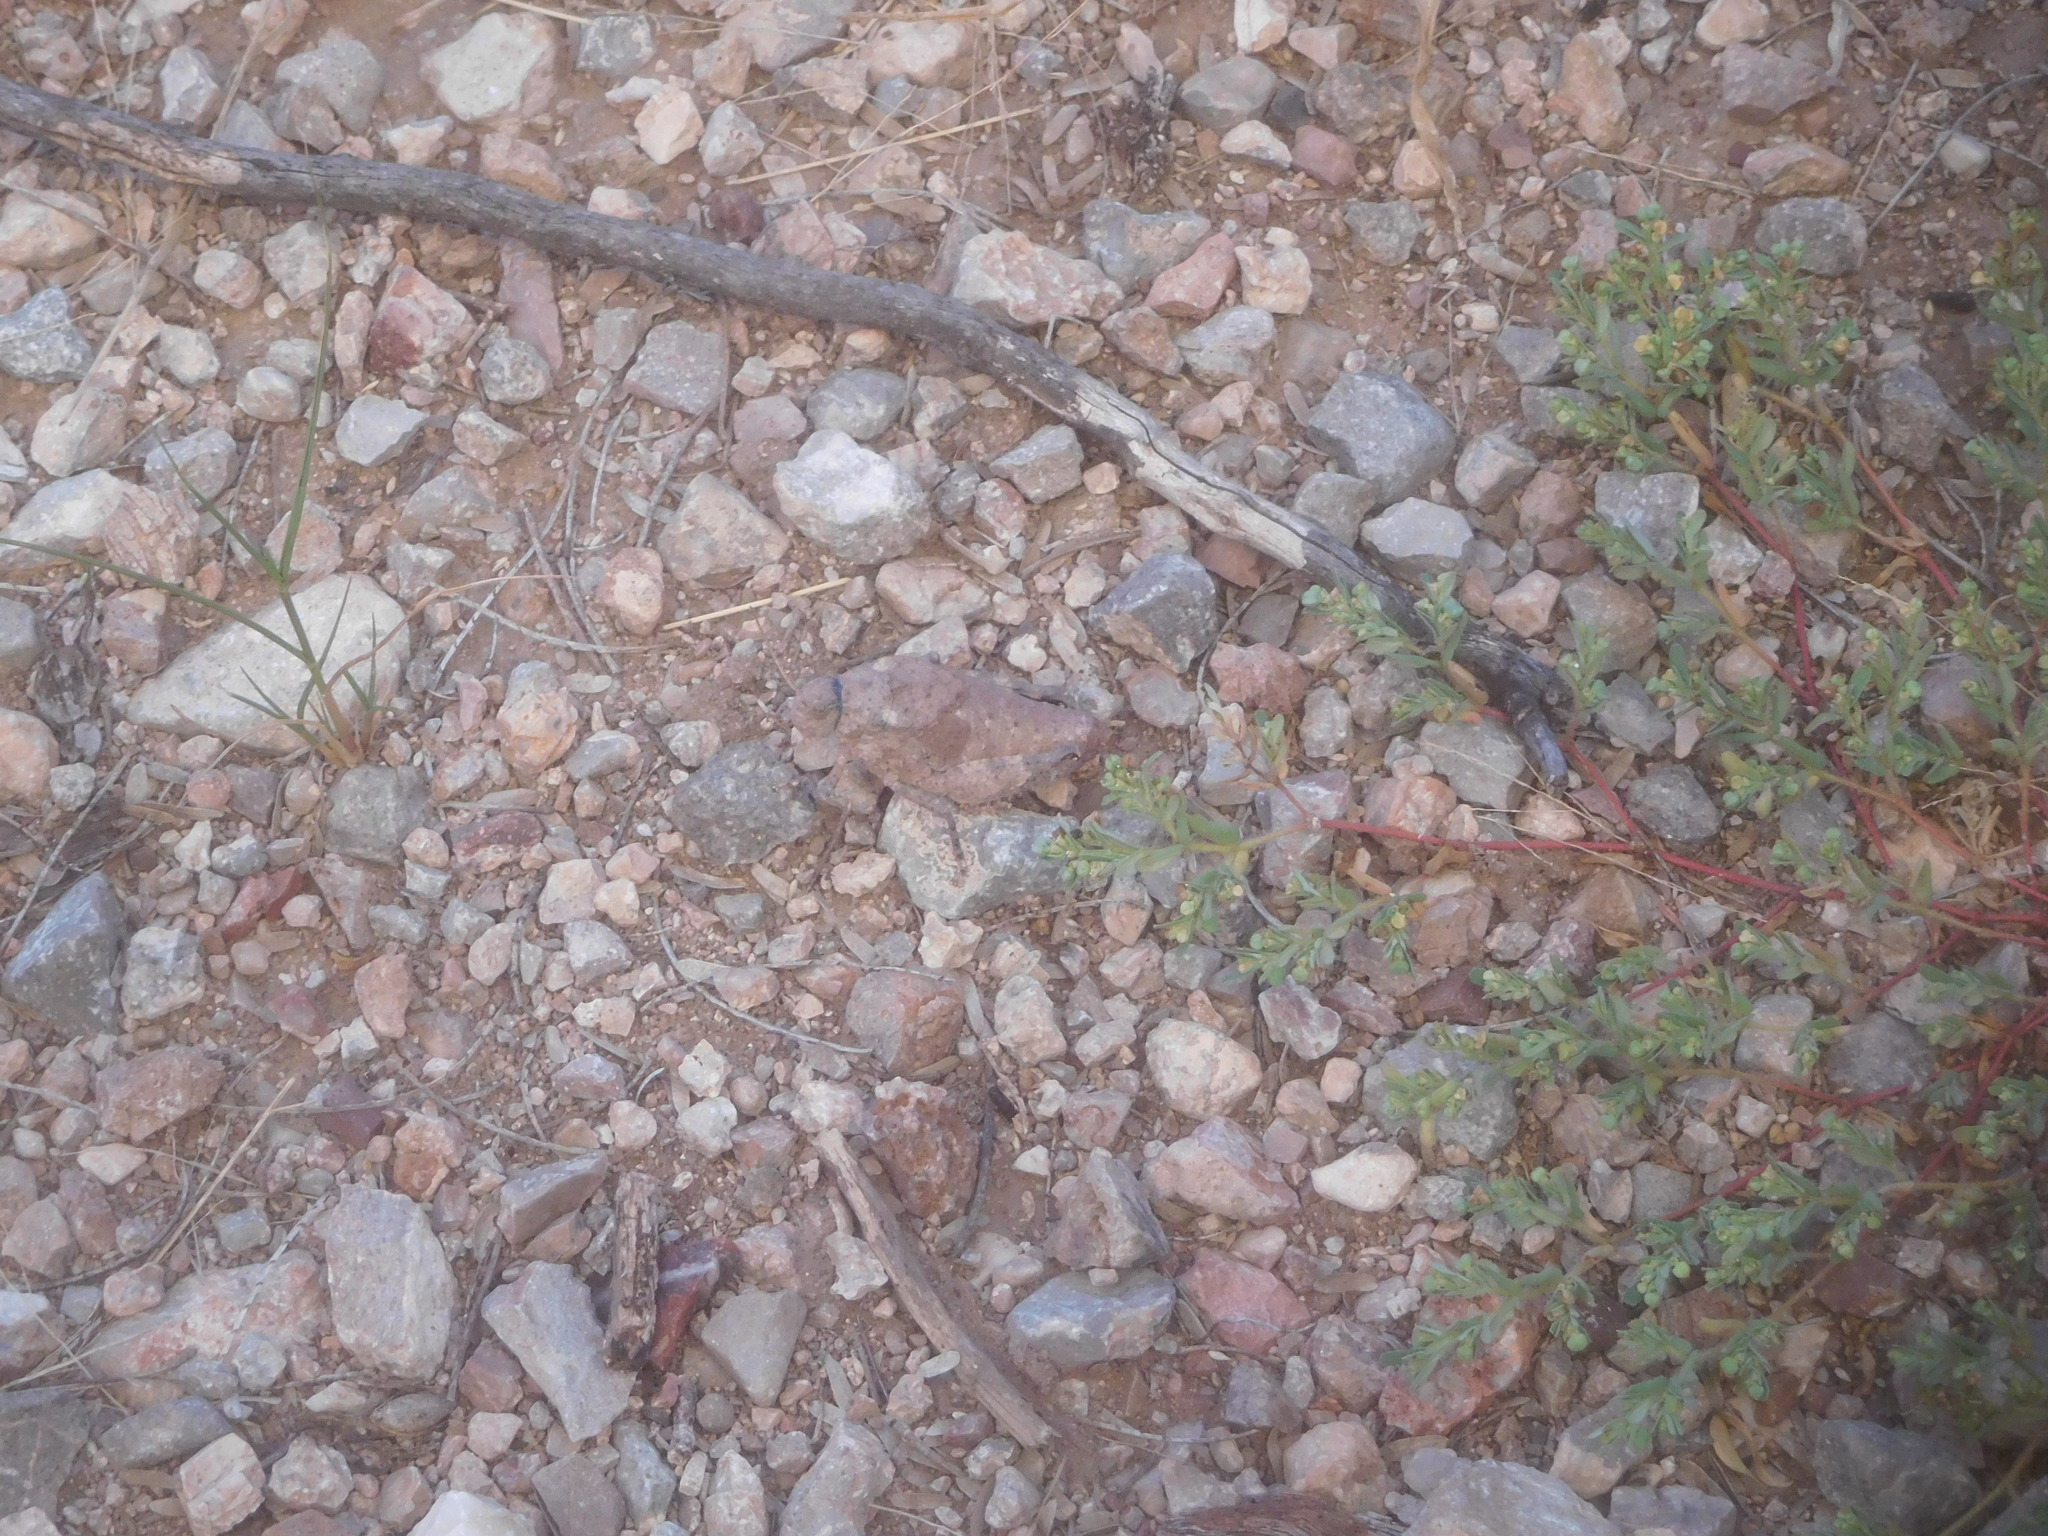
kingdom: Animalia
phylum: Arthropoda
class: Insecta
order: Orthoptera
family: Romaleidae
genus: Phrynotettix
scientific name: Phrynotettix tshivavensis
